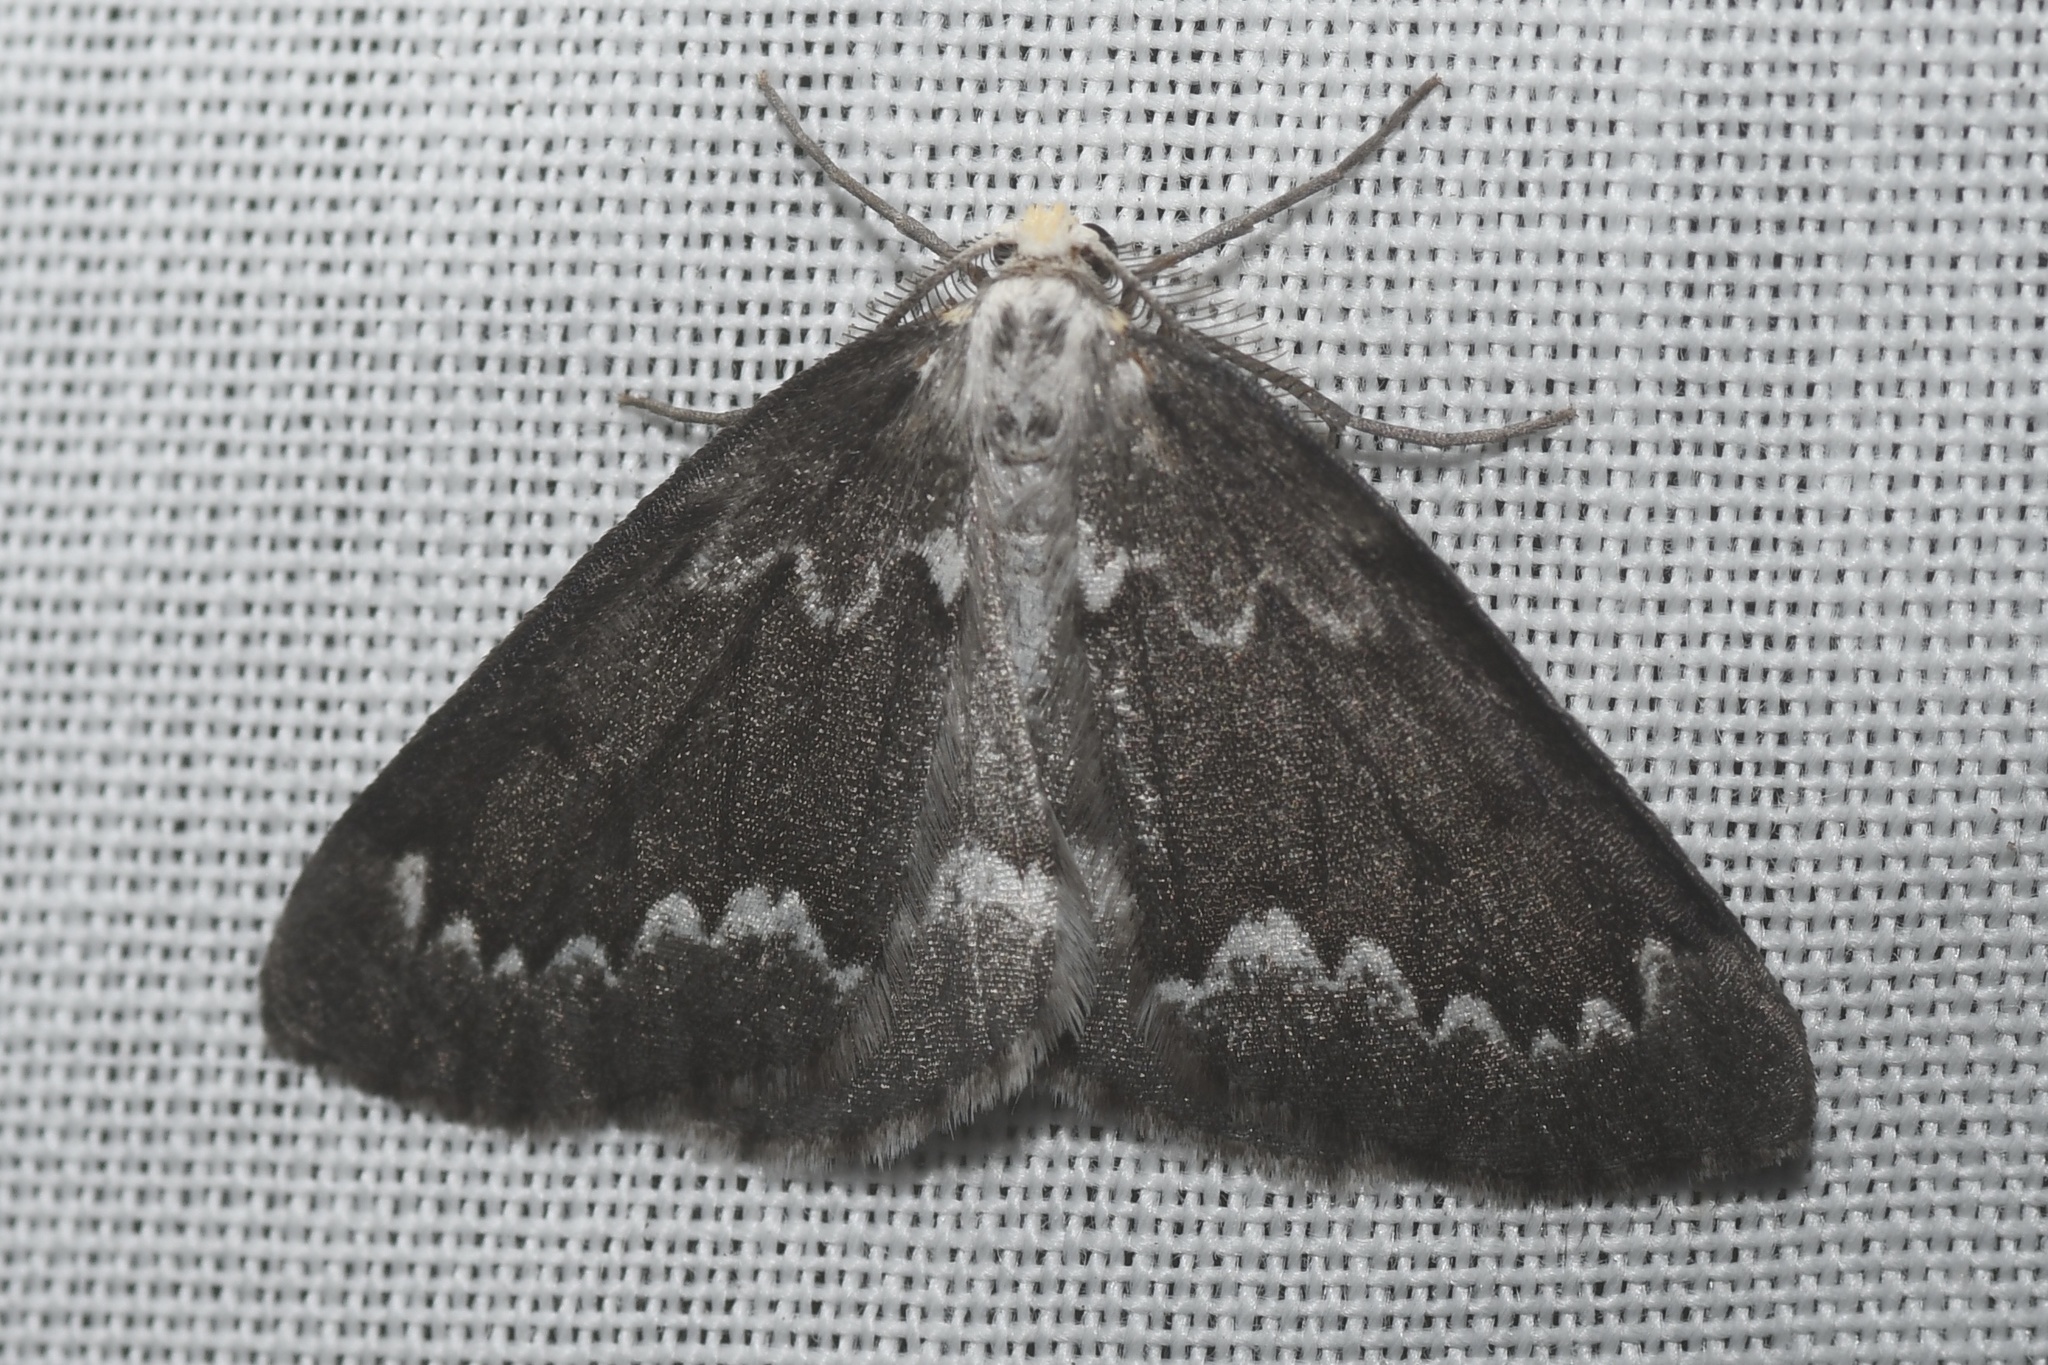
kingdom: Animalia
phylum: Arthropoda
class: Insecta
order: Lepidoptera
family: Geometridae
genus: Nepytia
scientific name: Nepytia canosaria
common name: False hemlock looper
